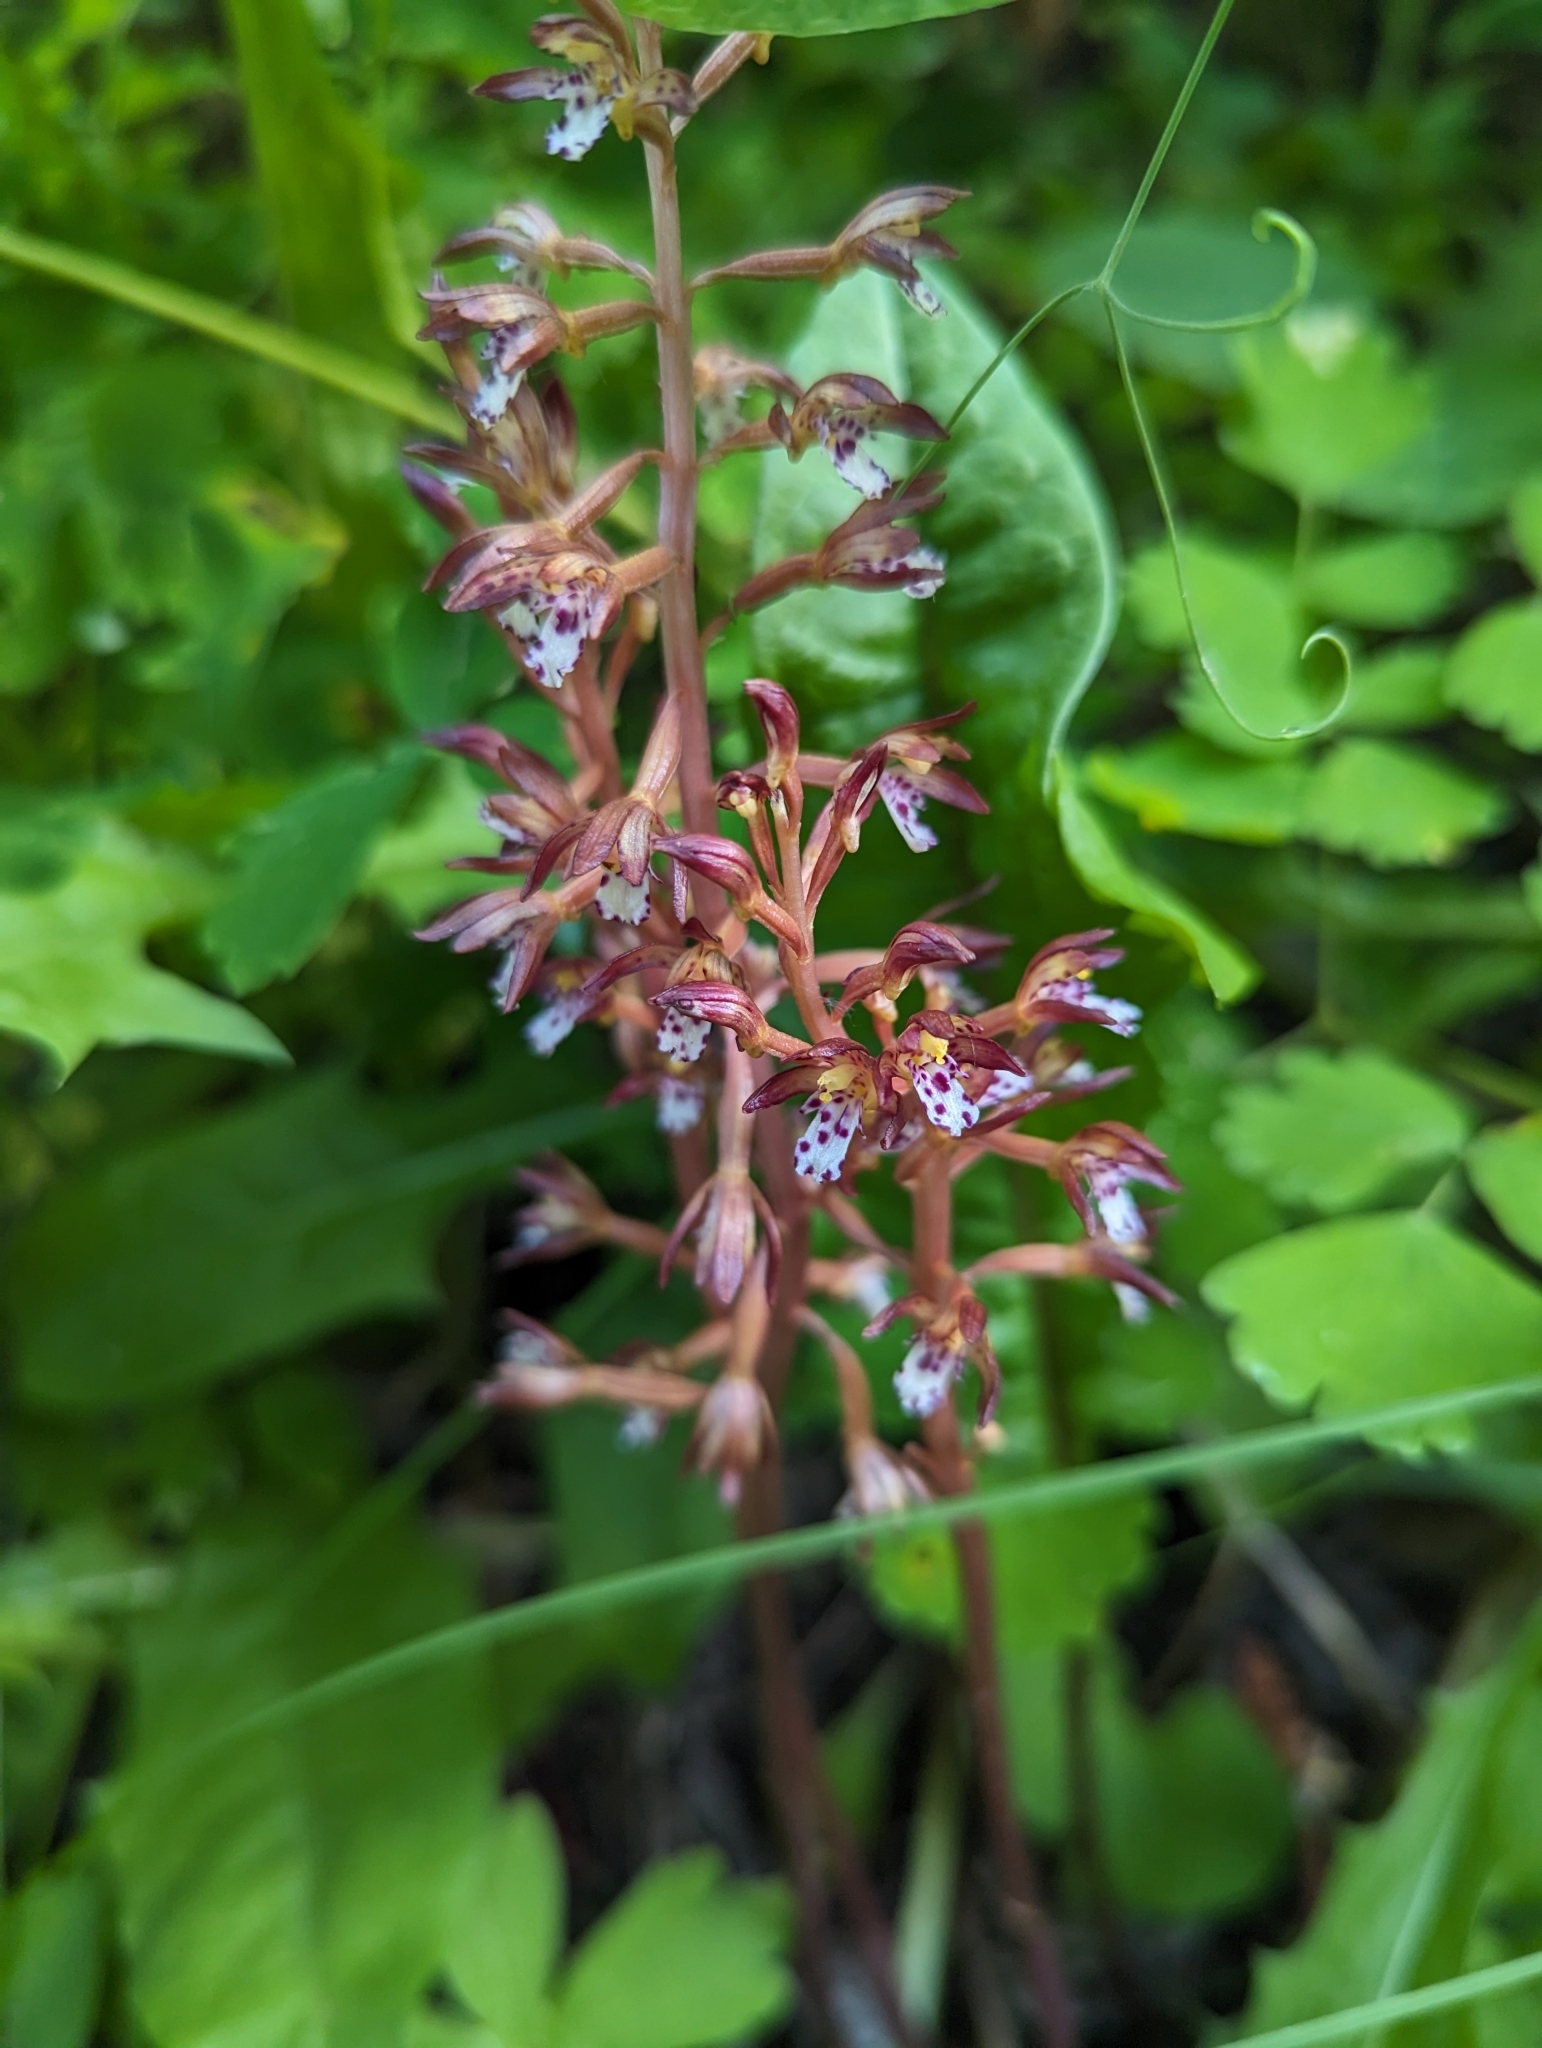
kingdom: Plantae
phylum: Tracheophyta
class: Liliopsida
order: Asparagales
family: Orchidaceae
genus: Corallorhiza
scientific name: Corallorhiza maculata
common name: Spotted coralroot
